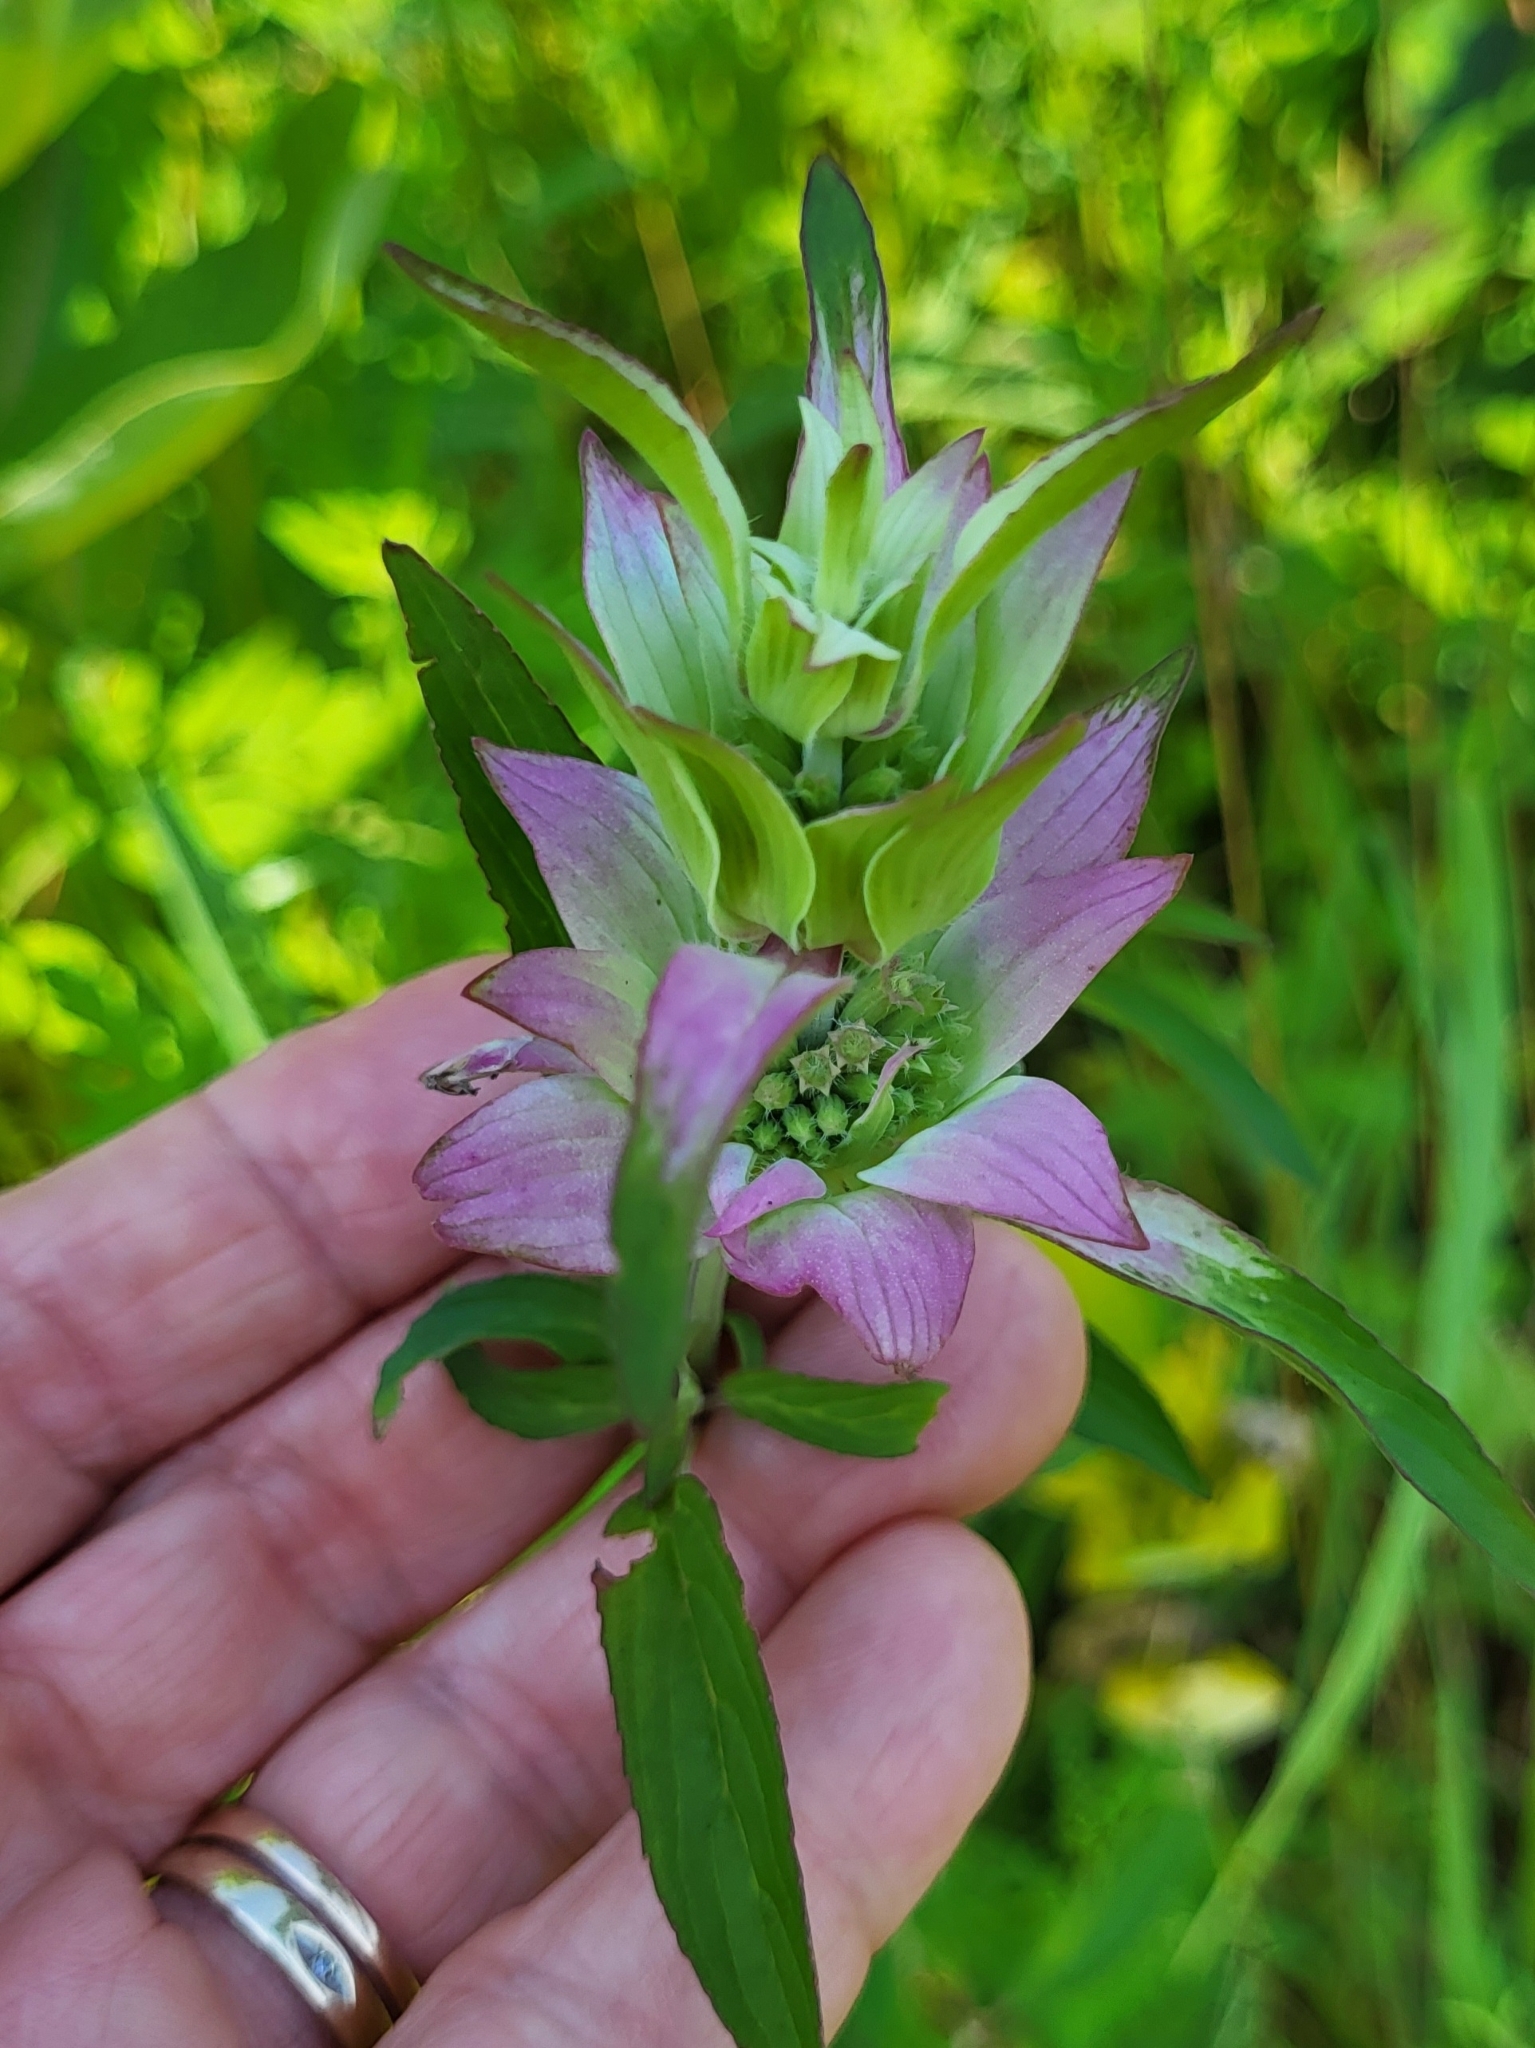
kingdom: Plantae
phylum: Tracheophyta
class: Magnoliopsida
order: Lamiales
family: Lamiaceae
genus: Monarda
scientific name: Monarda punctata
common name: Dotted monarda
